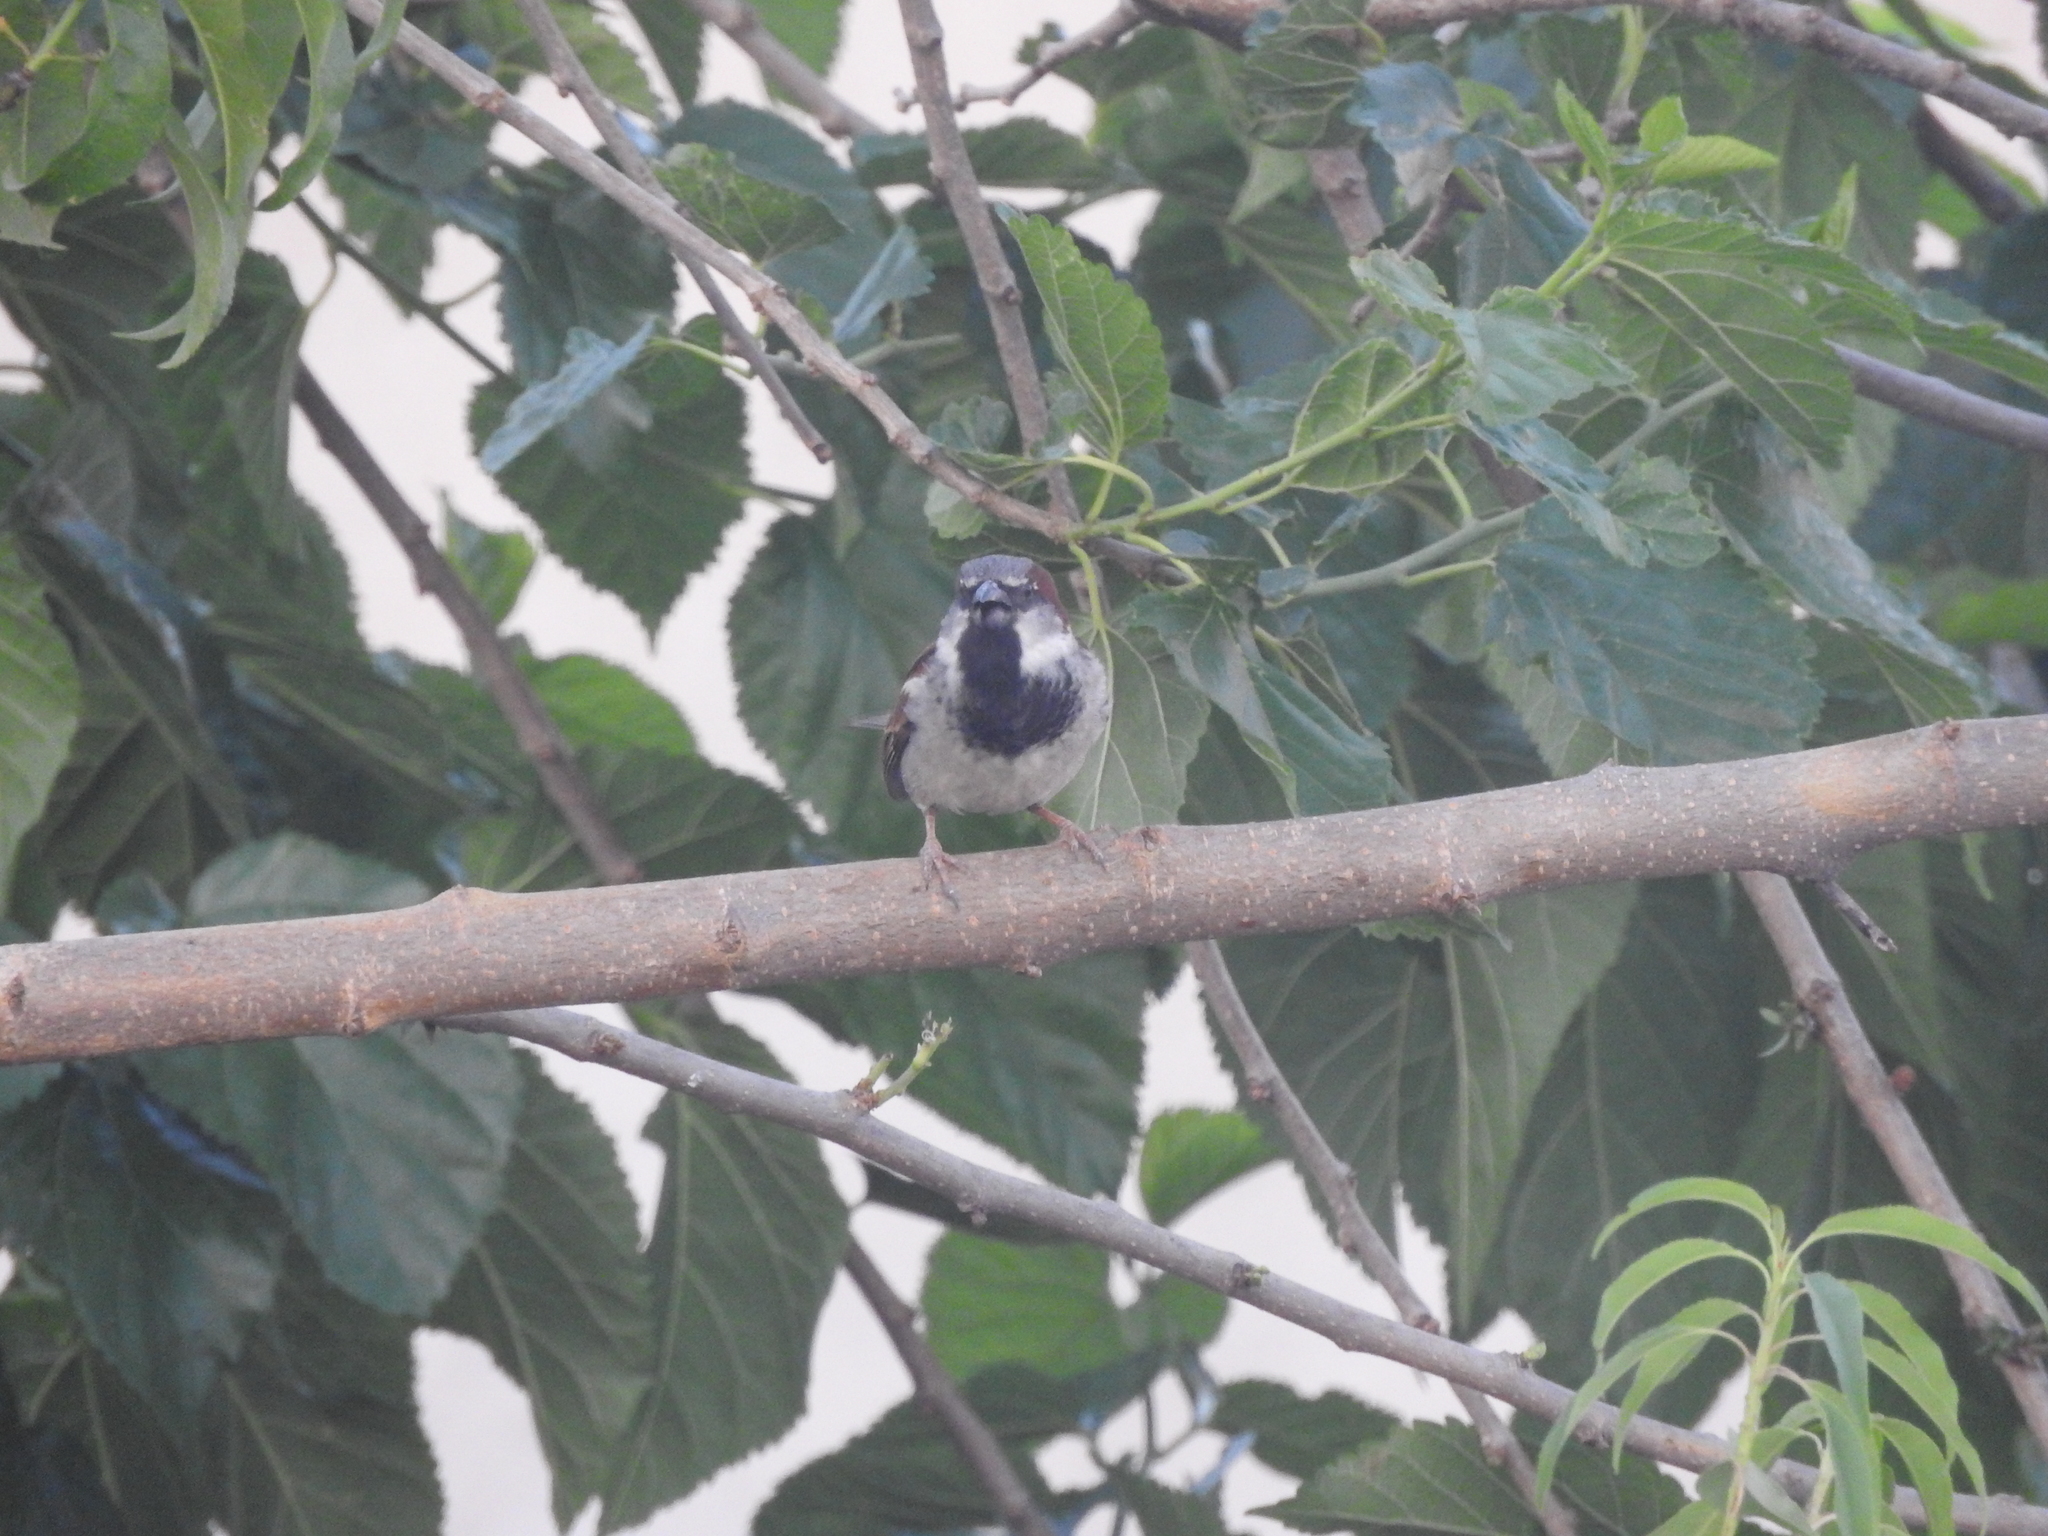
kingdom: Animalia
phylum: Chordata
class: Aves
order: Passeriformes
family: Passeridae
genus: Passer
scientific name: Passer domesticus
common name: House sparrow
